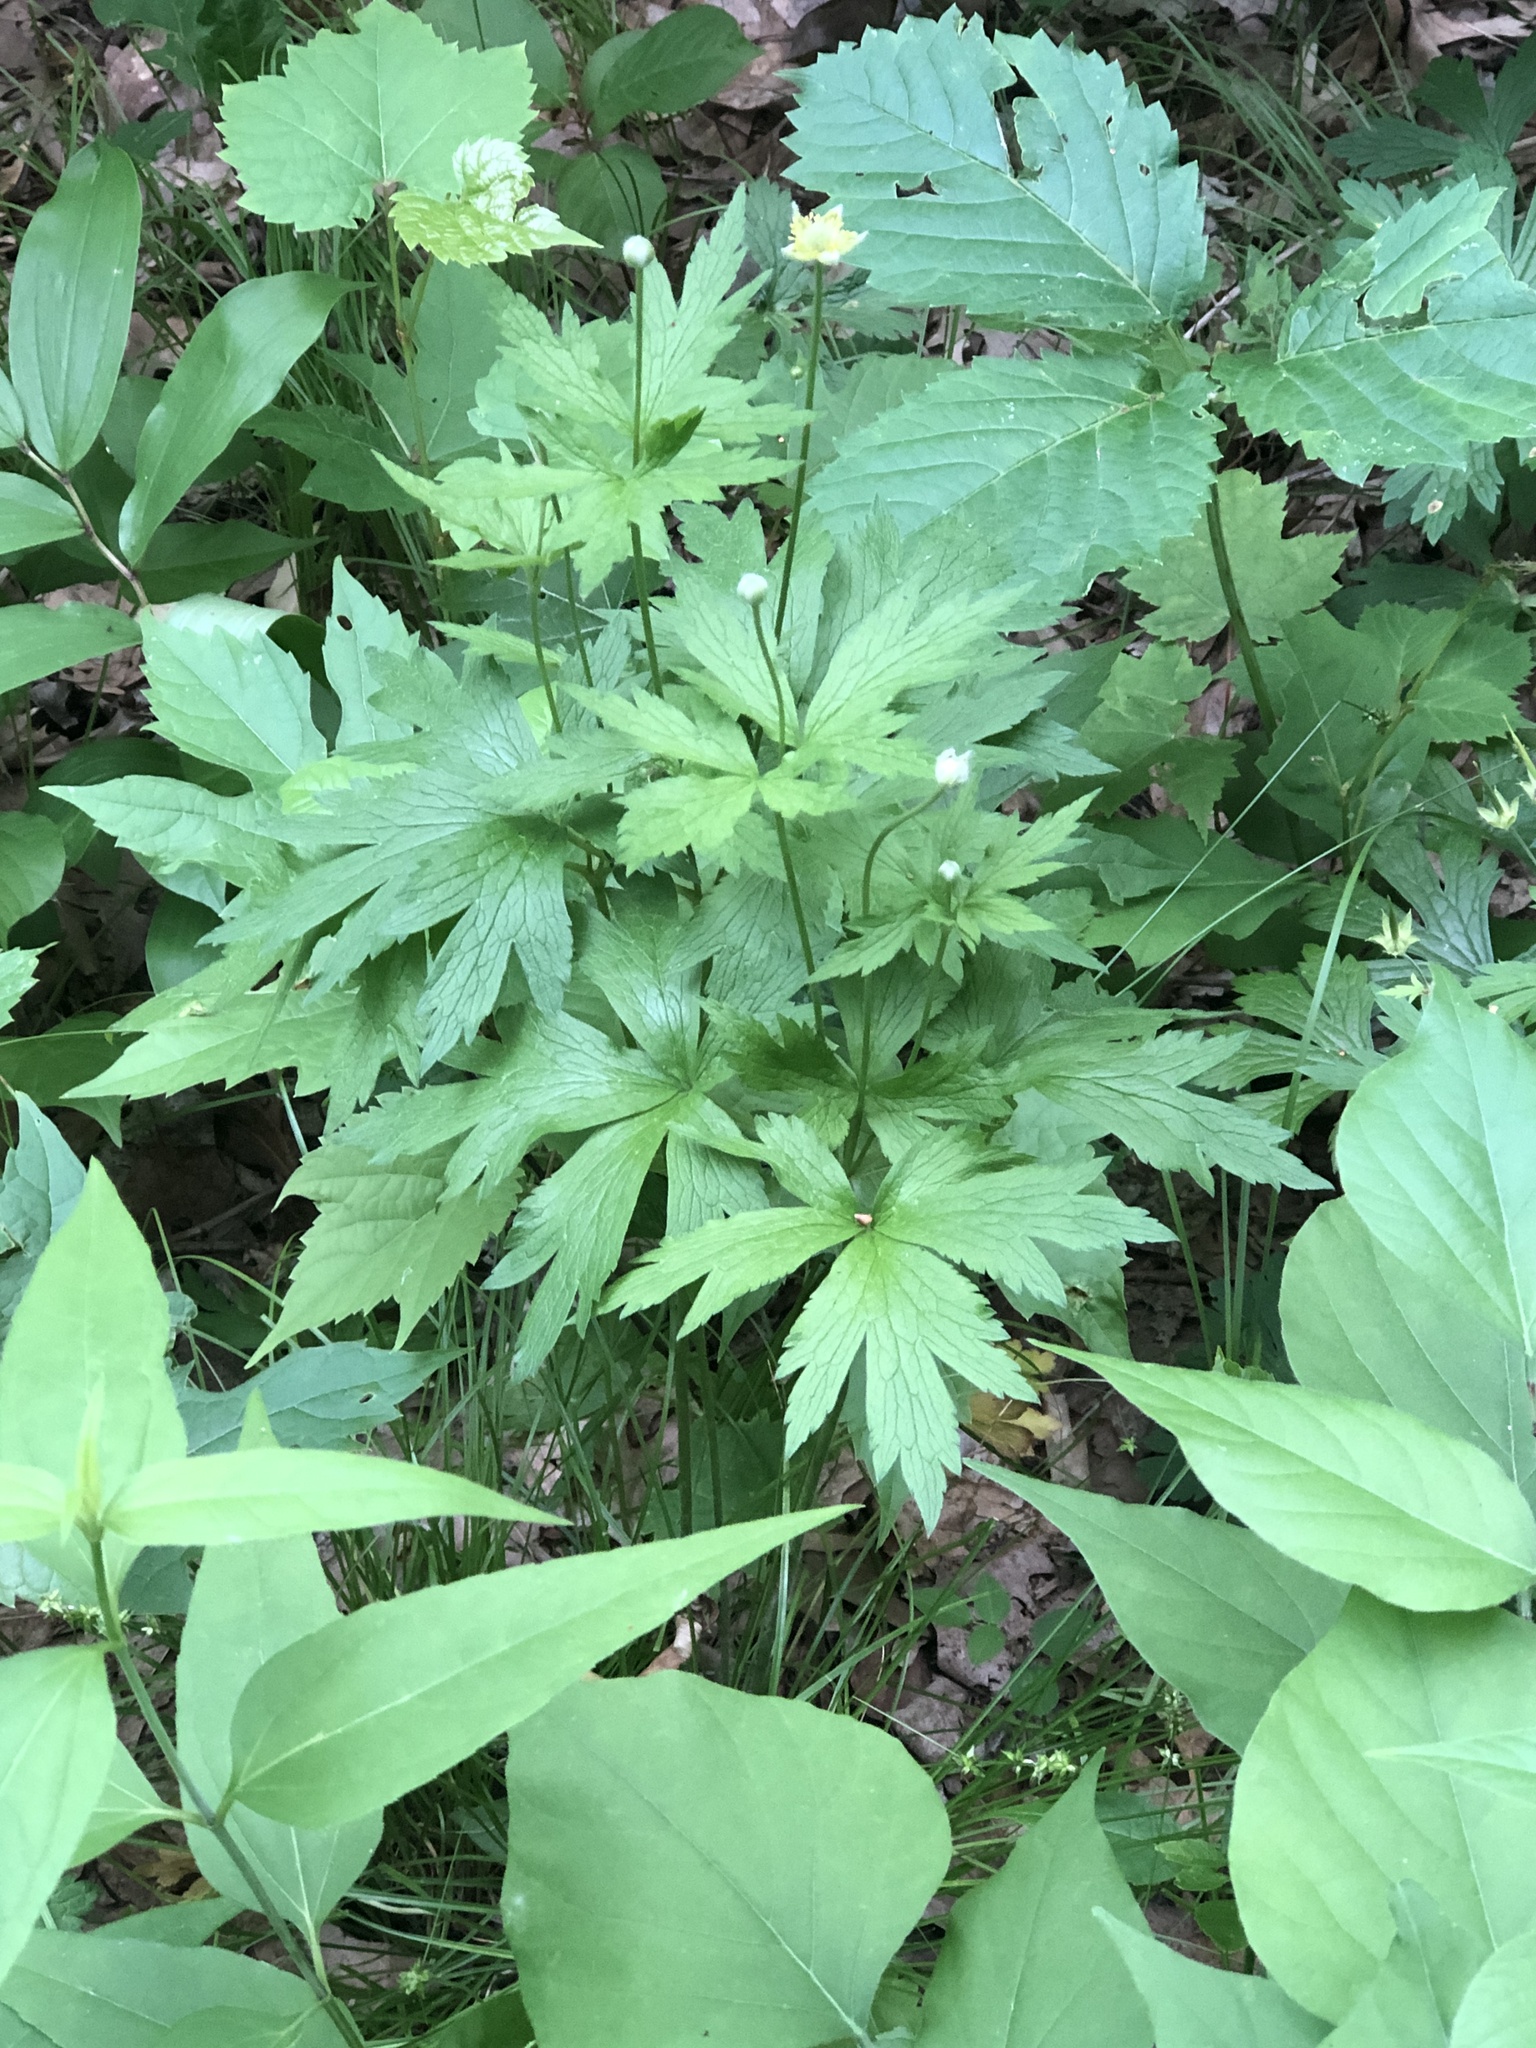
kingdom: Plantae
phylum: Tracheophyta
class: Magnoliopsida
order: Ranunculales
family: Ranunculaceae
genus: Anemone
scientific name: Anemone virginiana
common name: Tall anemone
